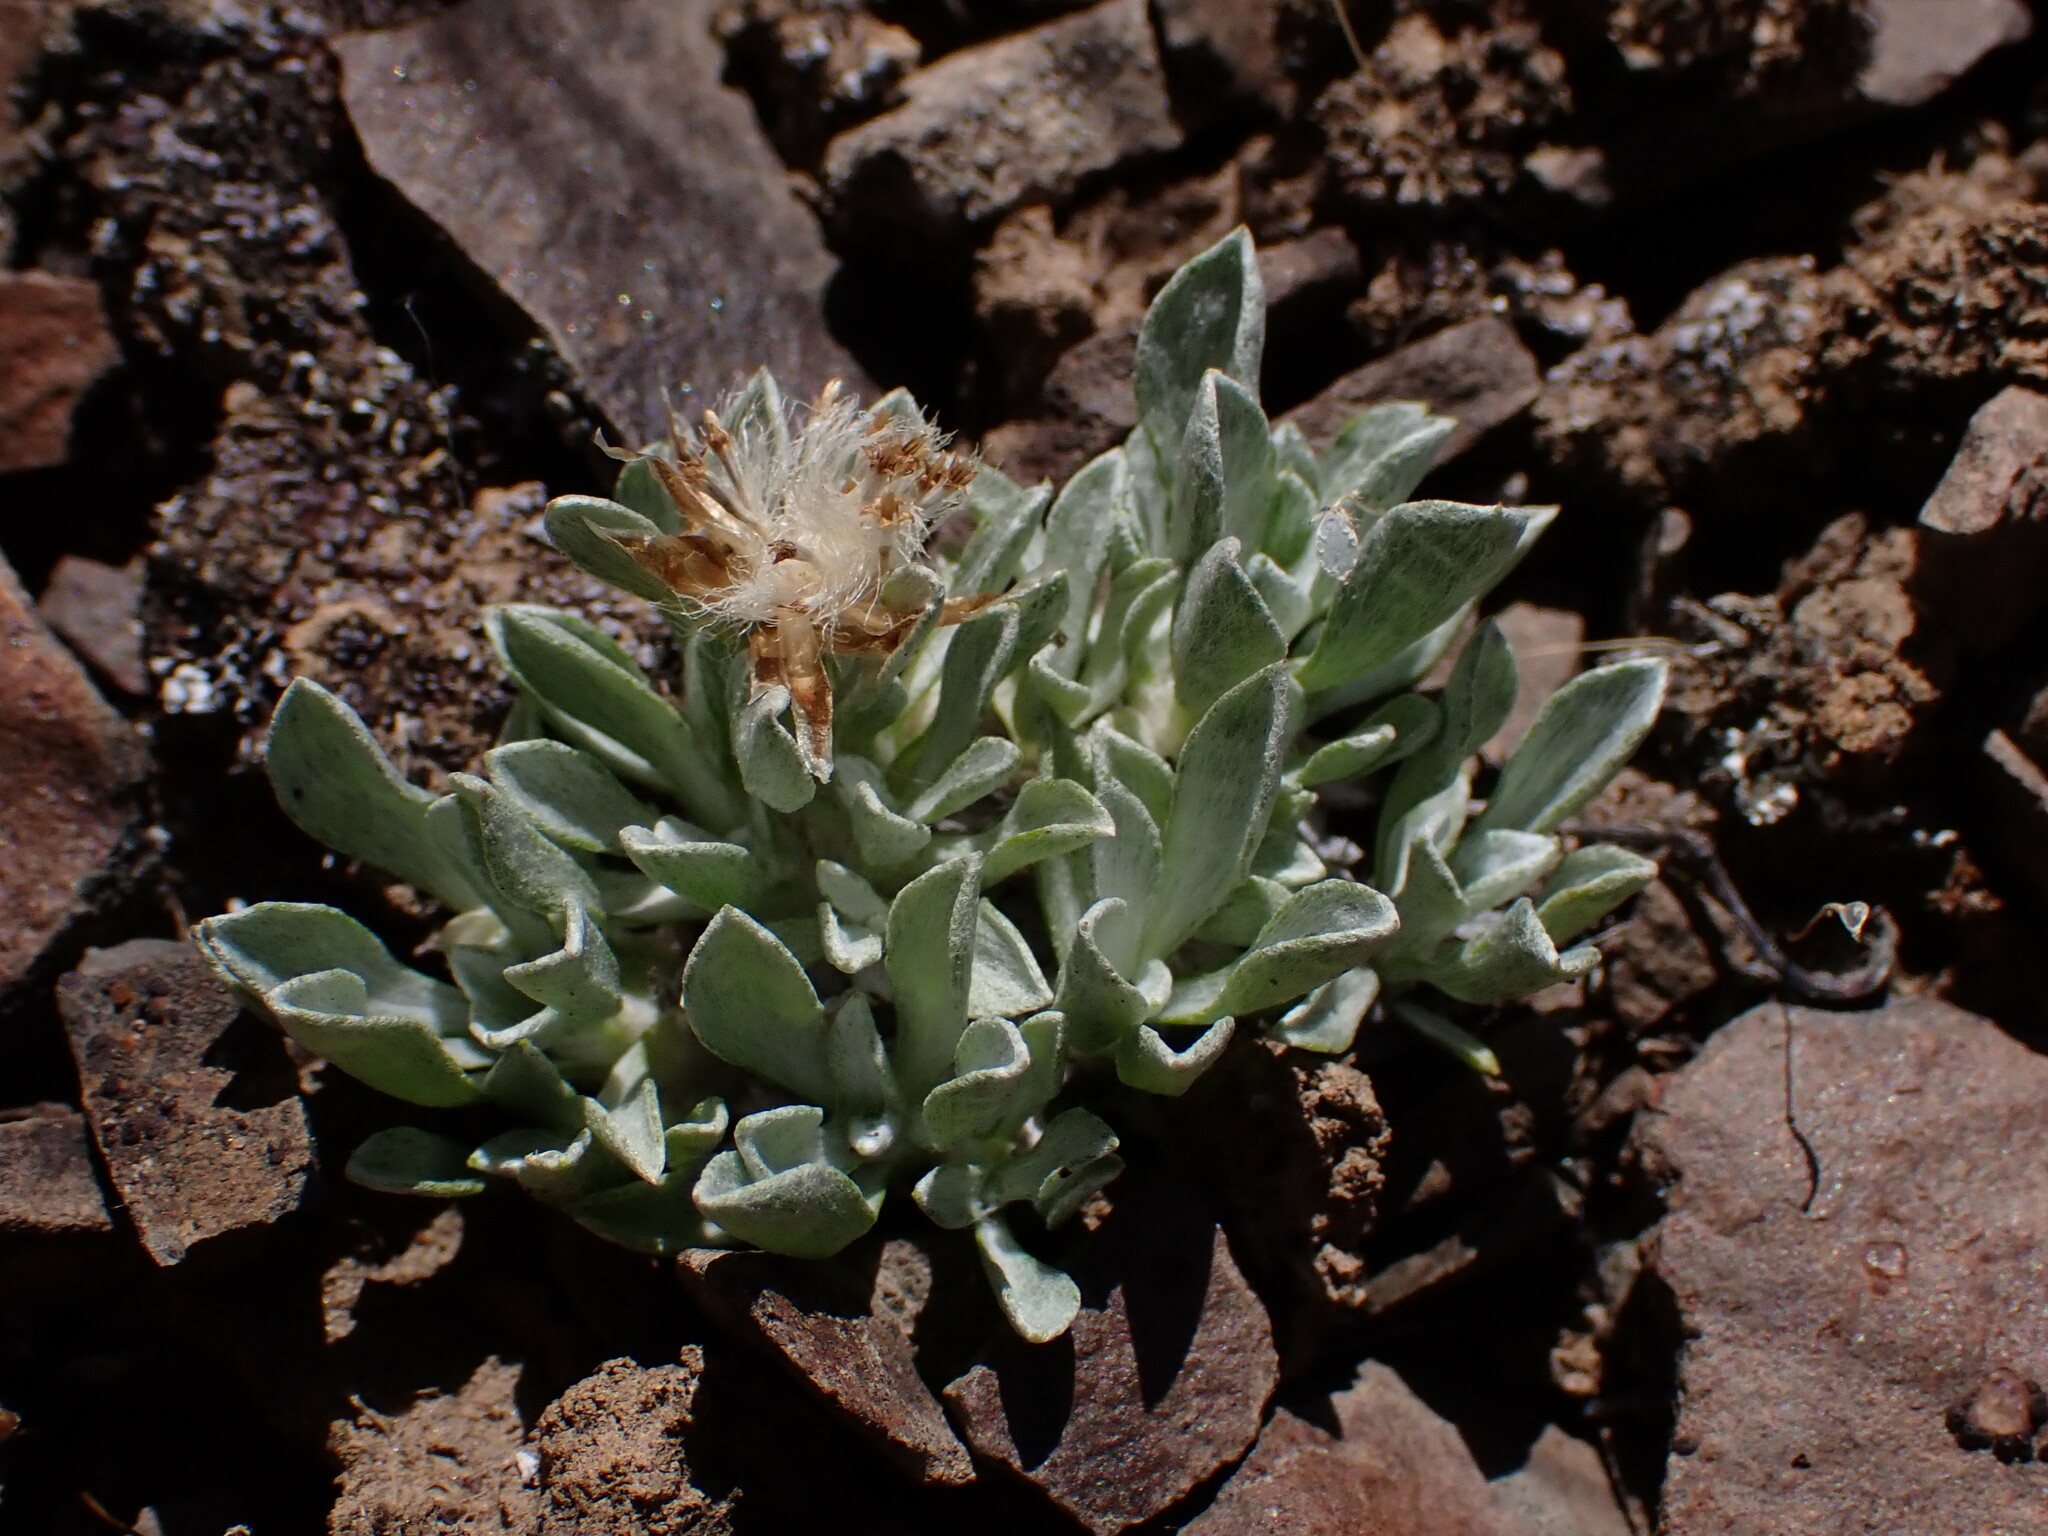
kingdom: Plantae
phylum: Tracheophyta
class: Magnoliopsida
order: Asterales
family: Asteraceae
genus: Antennaria
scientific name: Antennaria dimorpha
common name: Cushion pussytoes
